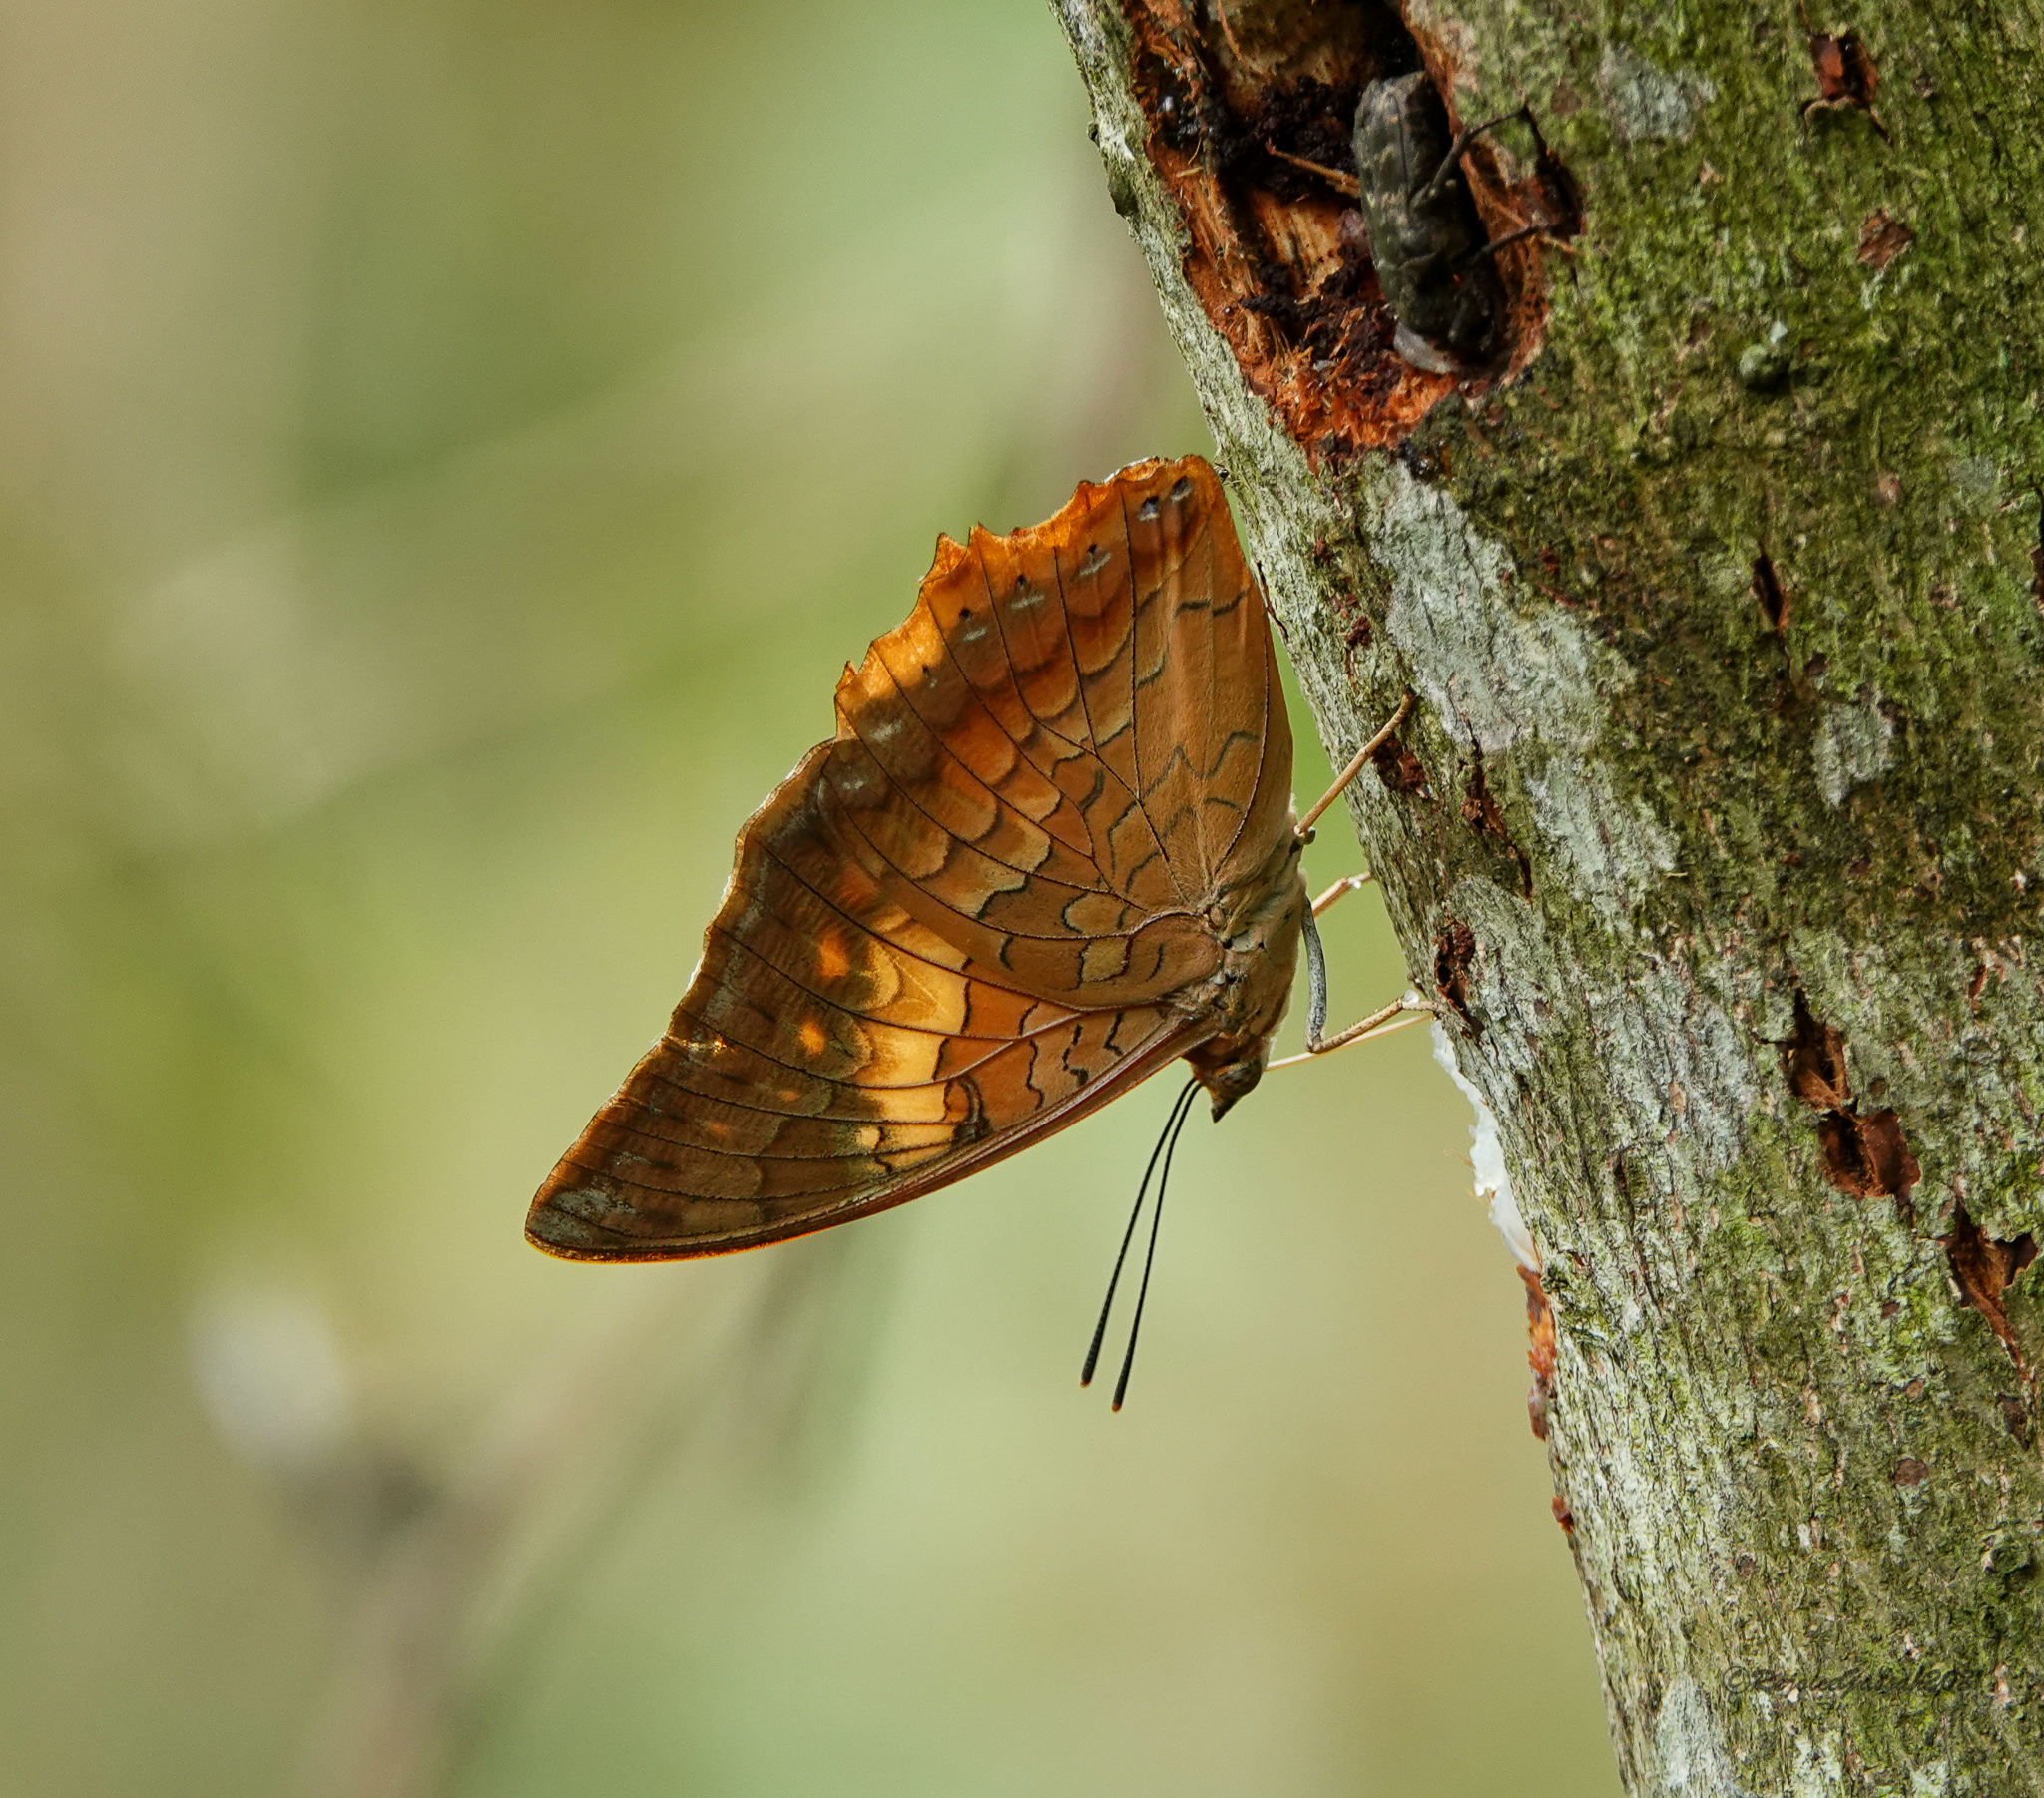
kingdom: Animalia
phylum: Arthropoda
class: Insecta
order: Lepidoptera
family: Nymphalidae
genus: Charaxes
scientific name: Charaxes bernardus
